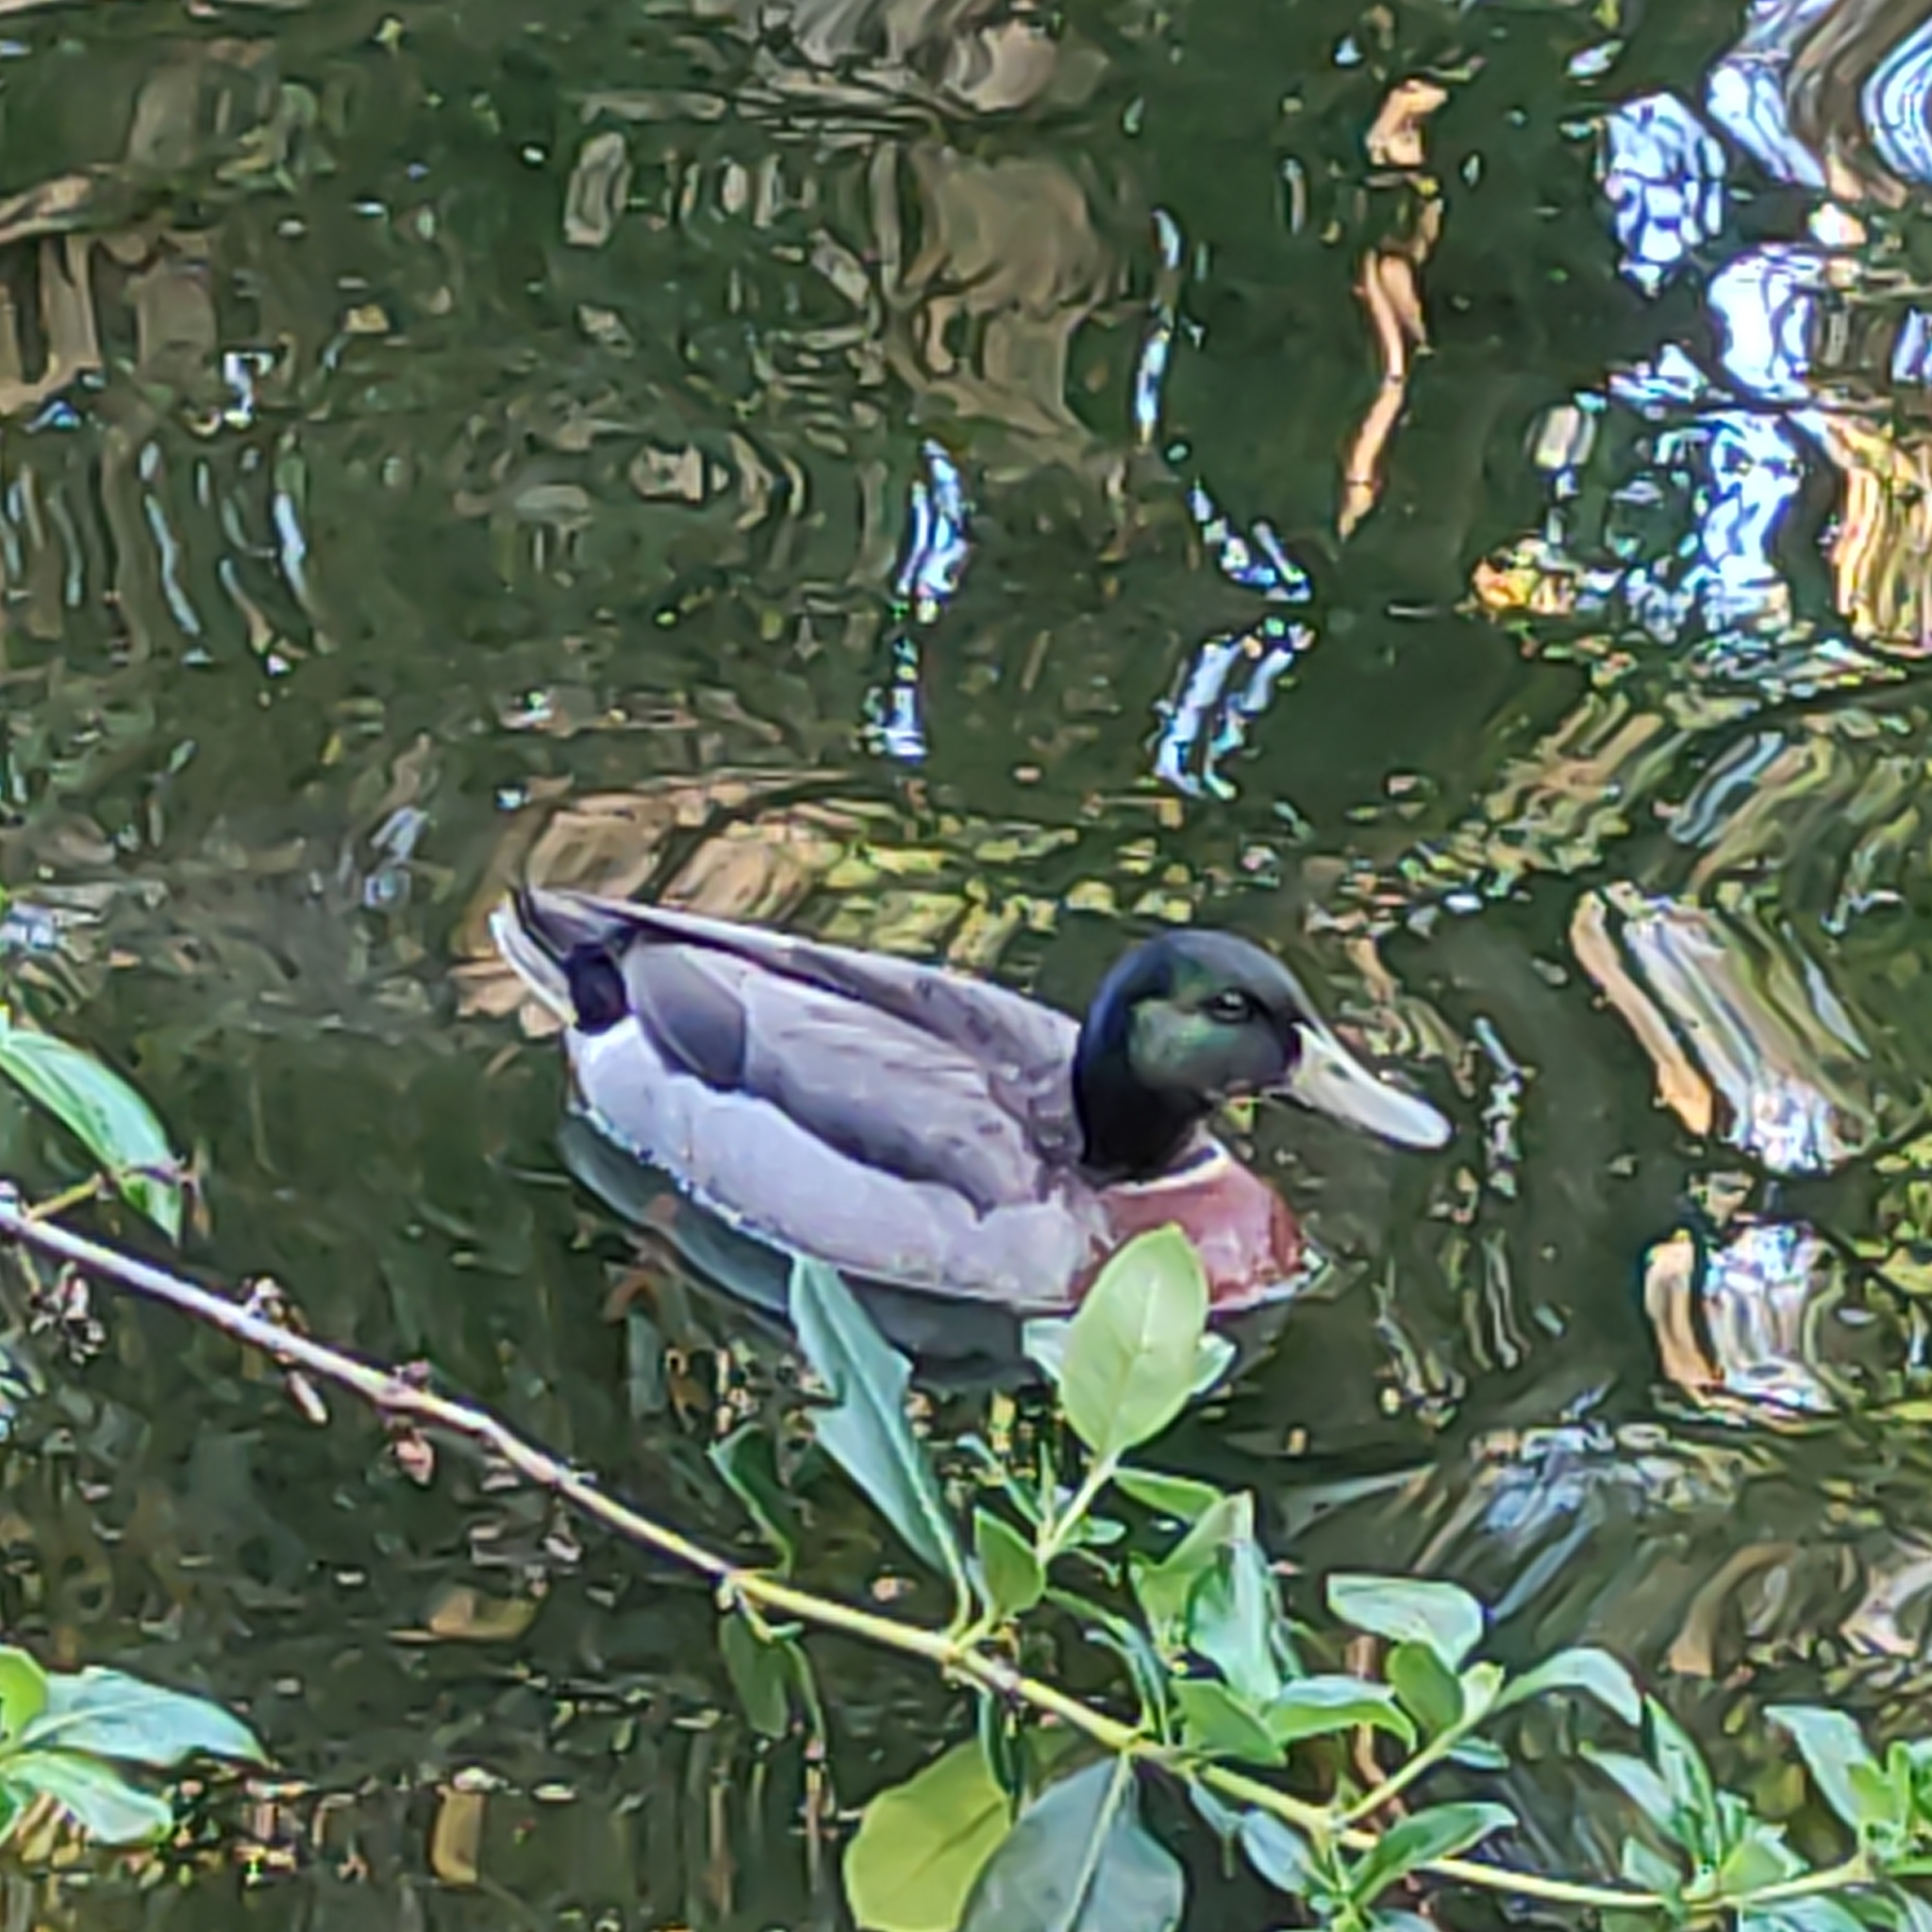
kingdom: Animalia
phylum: Chordata
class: Aves
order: Anseriformes
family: Anatidae
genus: Anas
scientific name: Anas platyrhynchos
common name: Mallard
